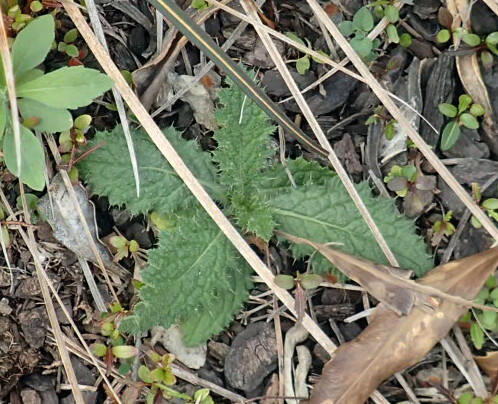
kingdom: Plantae
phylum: Tracheophyta
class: Magnoliopsida
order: Asterales
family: Asteraceae
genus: Cirsium
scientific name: Cirsium vulgare
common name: Bull thistle
